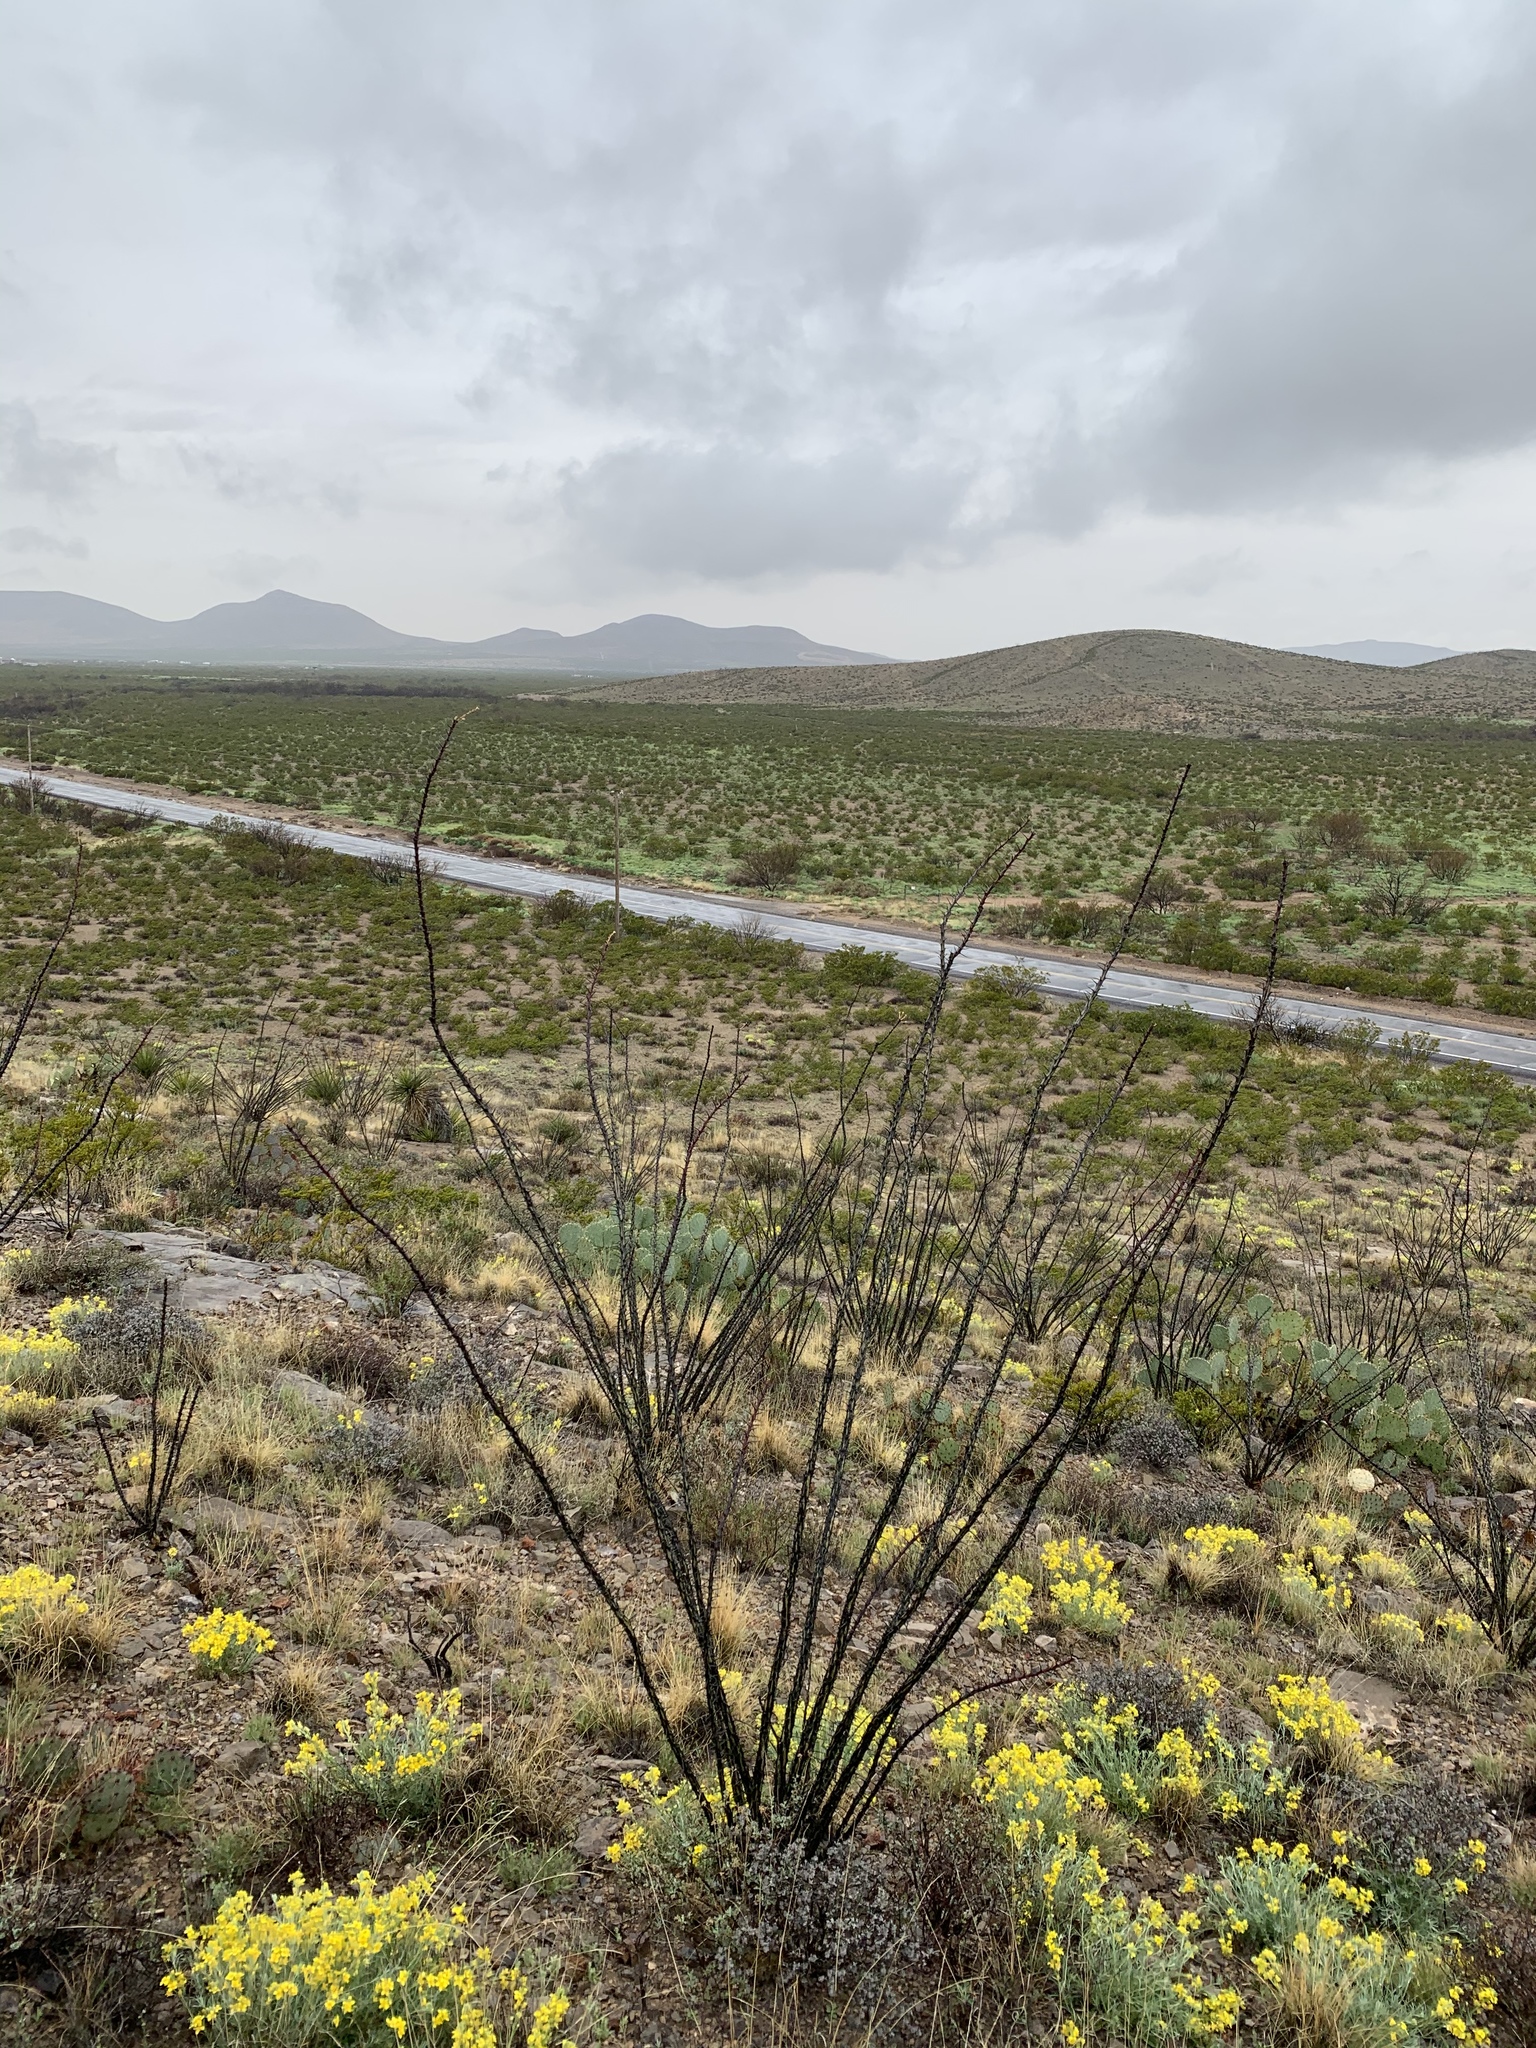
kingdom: Plantae
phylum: Tracheophyta
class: Magnoliopsida
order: Ericales
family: Fouquieriaceae
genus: Fouquieria
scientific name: Fouquieria splendens
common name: Vine-cactus
